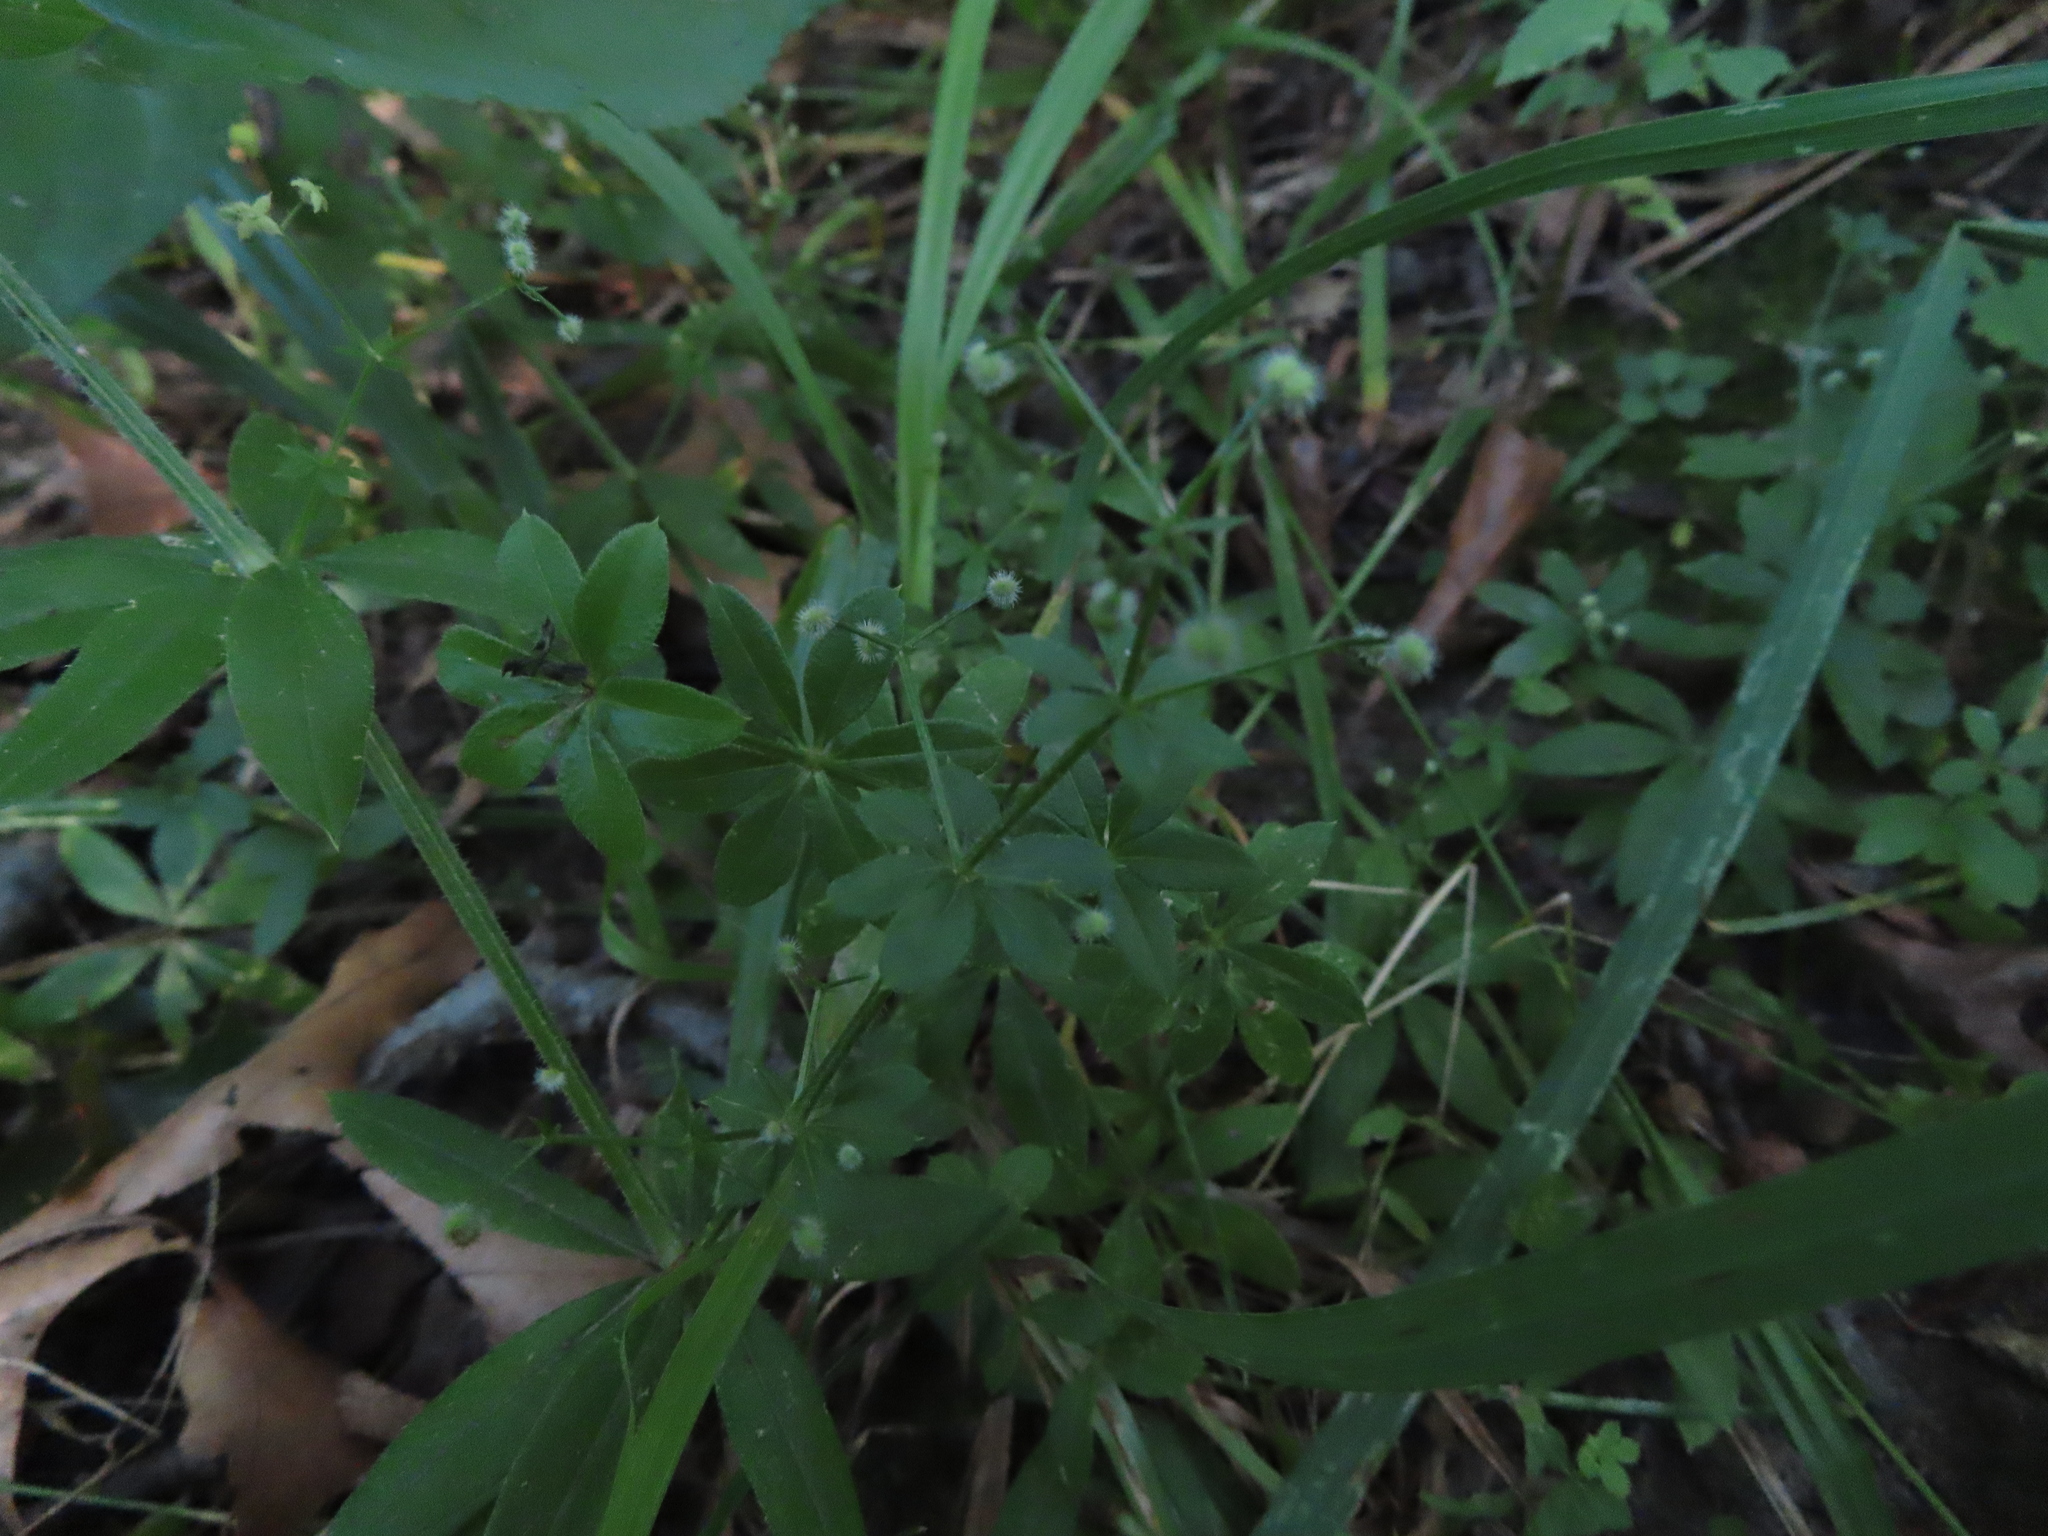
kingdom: Plantae
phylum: Tracheophyta
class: Magnoliopsida
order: Gentianales
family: Rubiaceae
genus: Galium
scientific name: Galium triflorum
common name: Fragrant bedstraw
